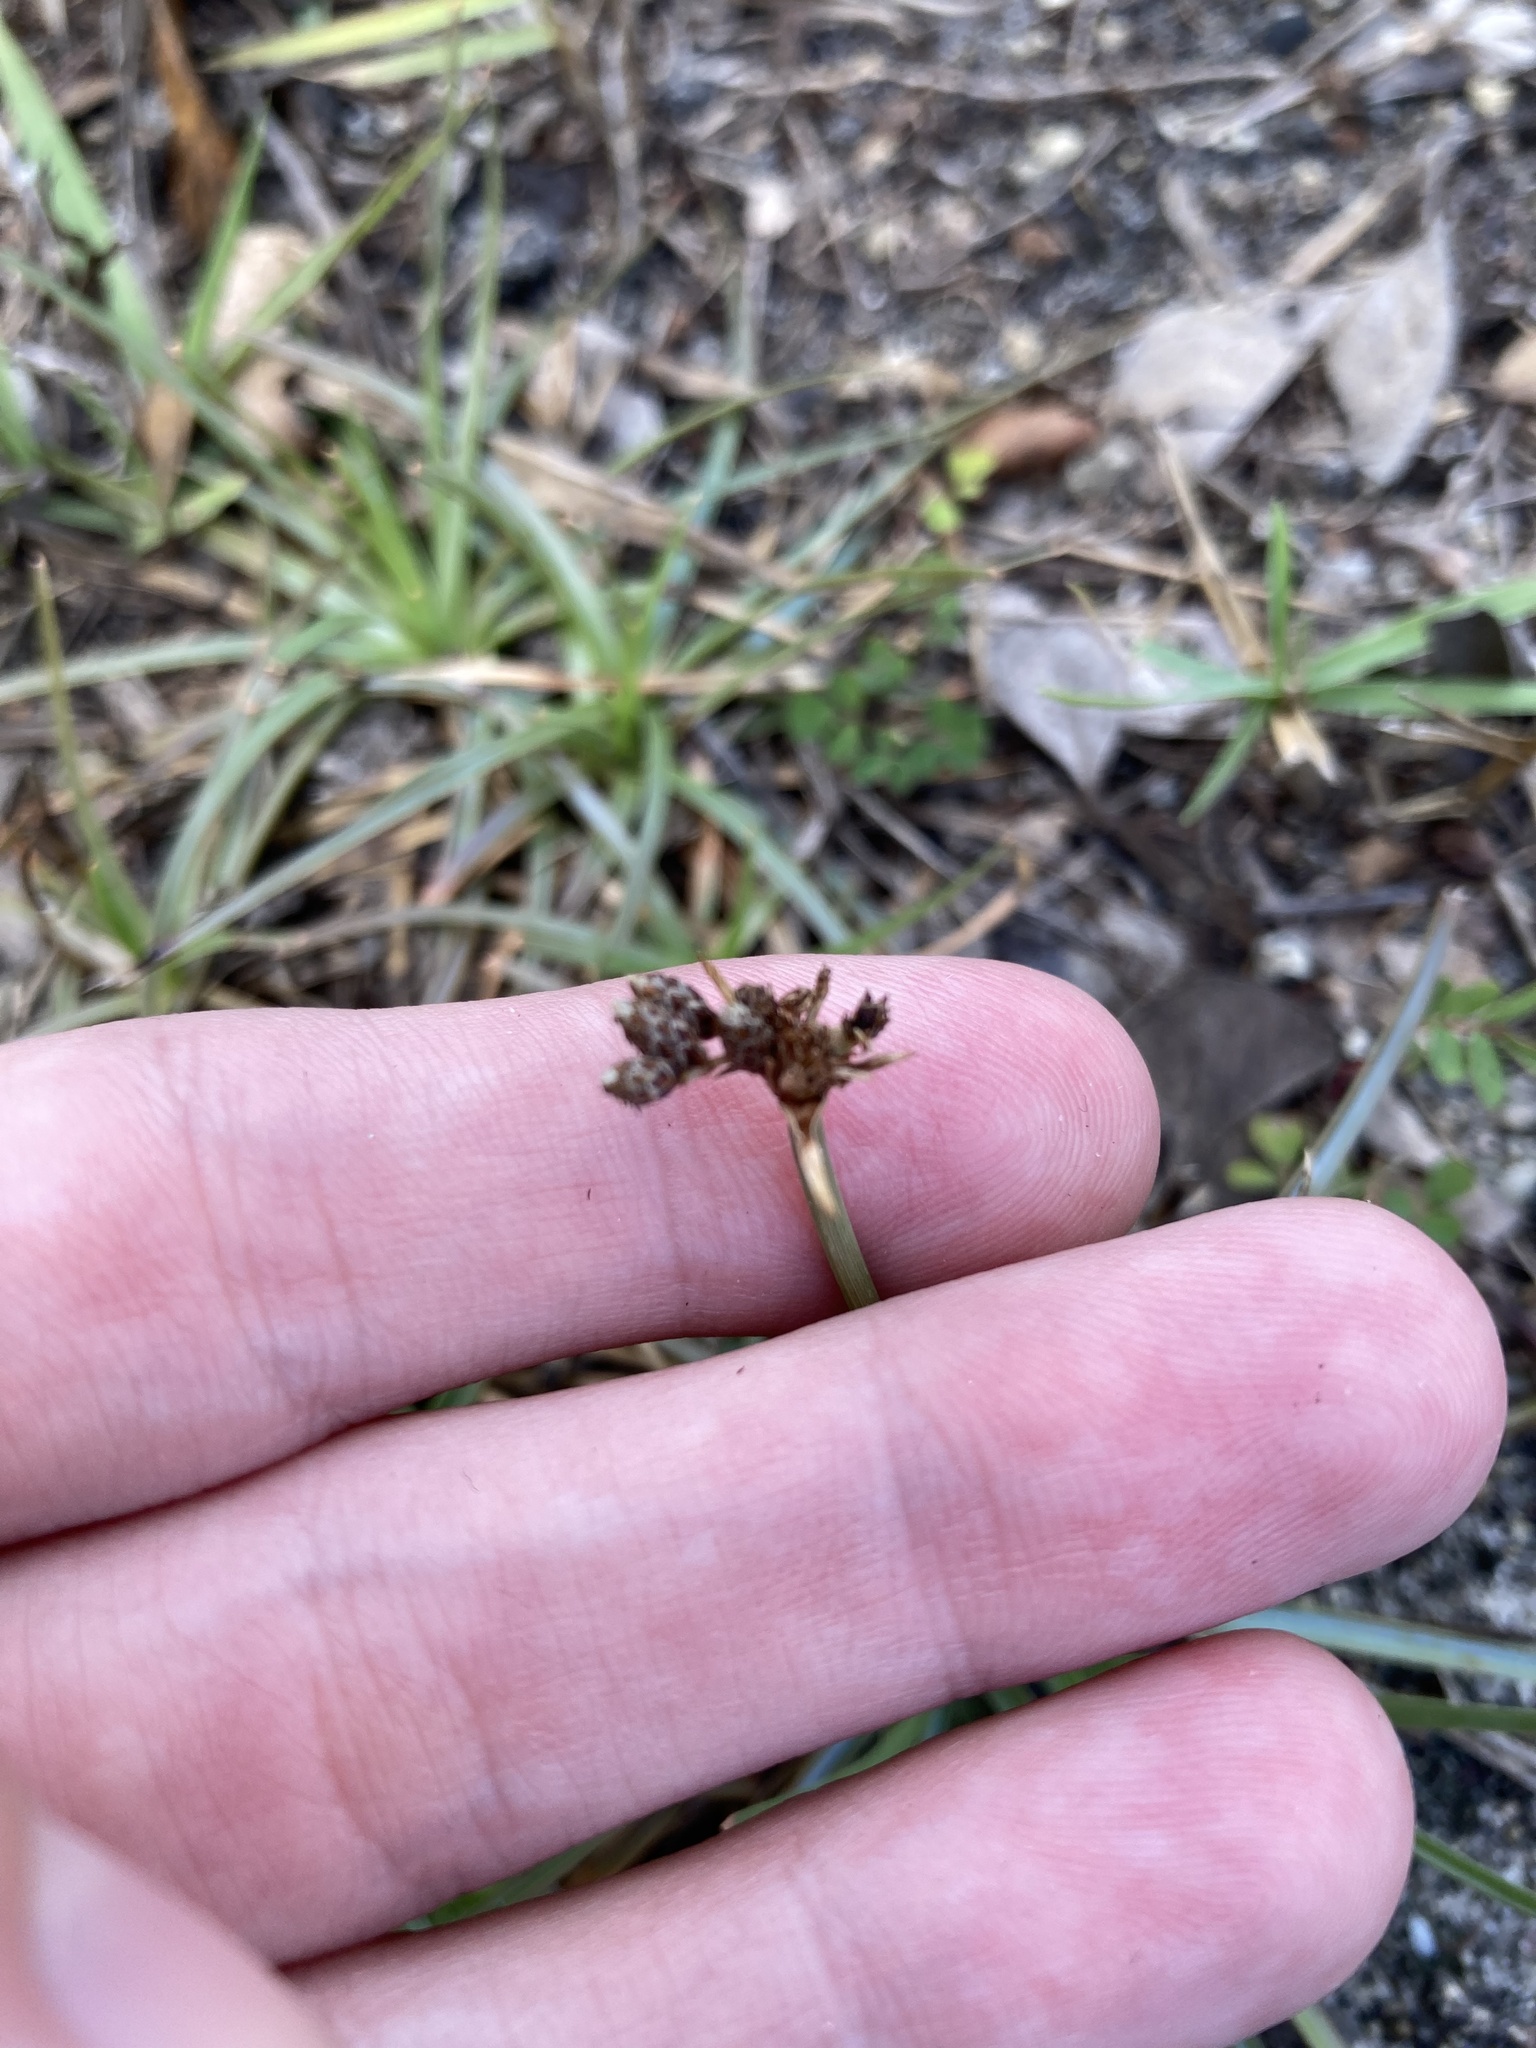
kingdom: Plantae
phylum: Tracheophyta
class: Liliopsida
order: Poales
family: Cyperaceae
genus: Fimbristylis
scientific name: Fimbristylis cymosa
